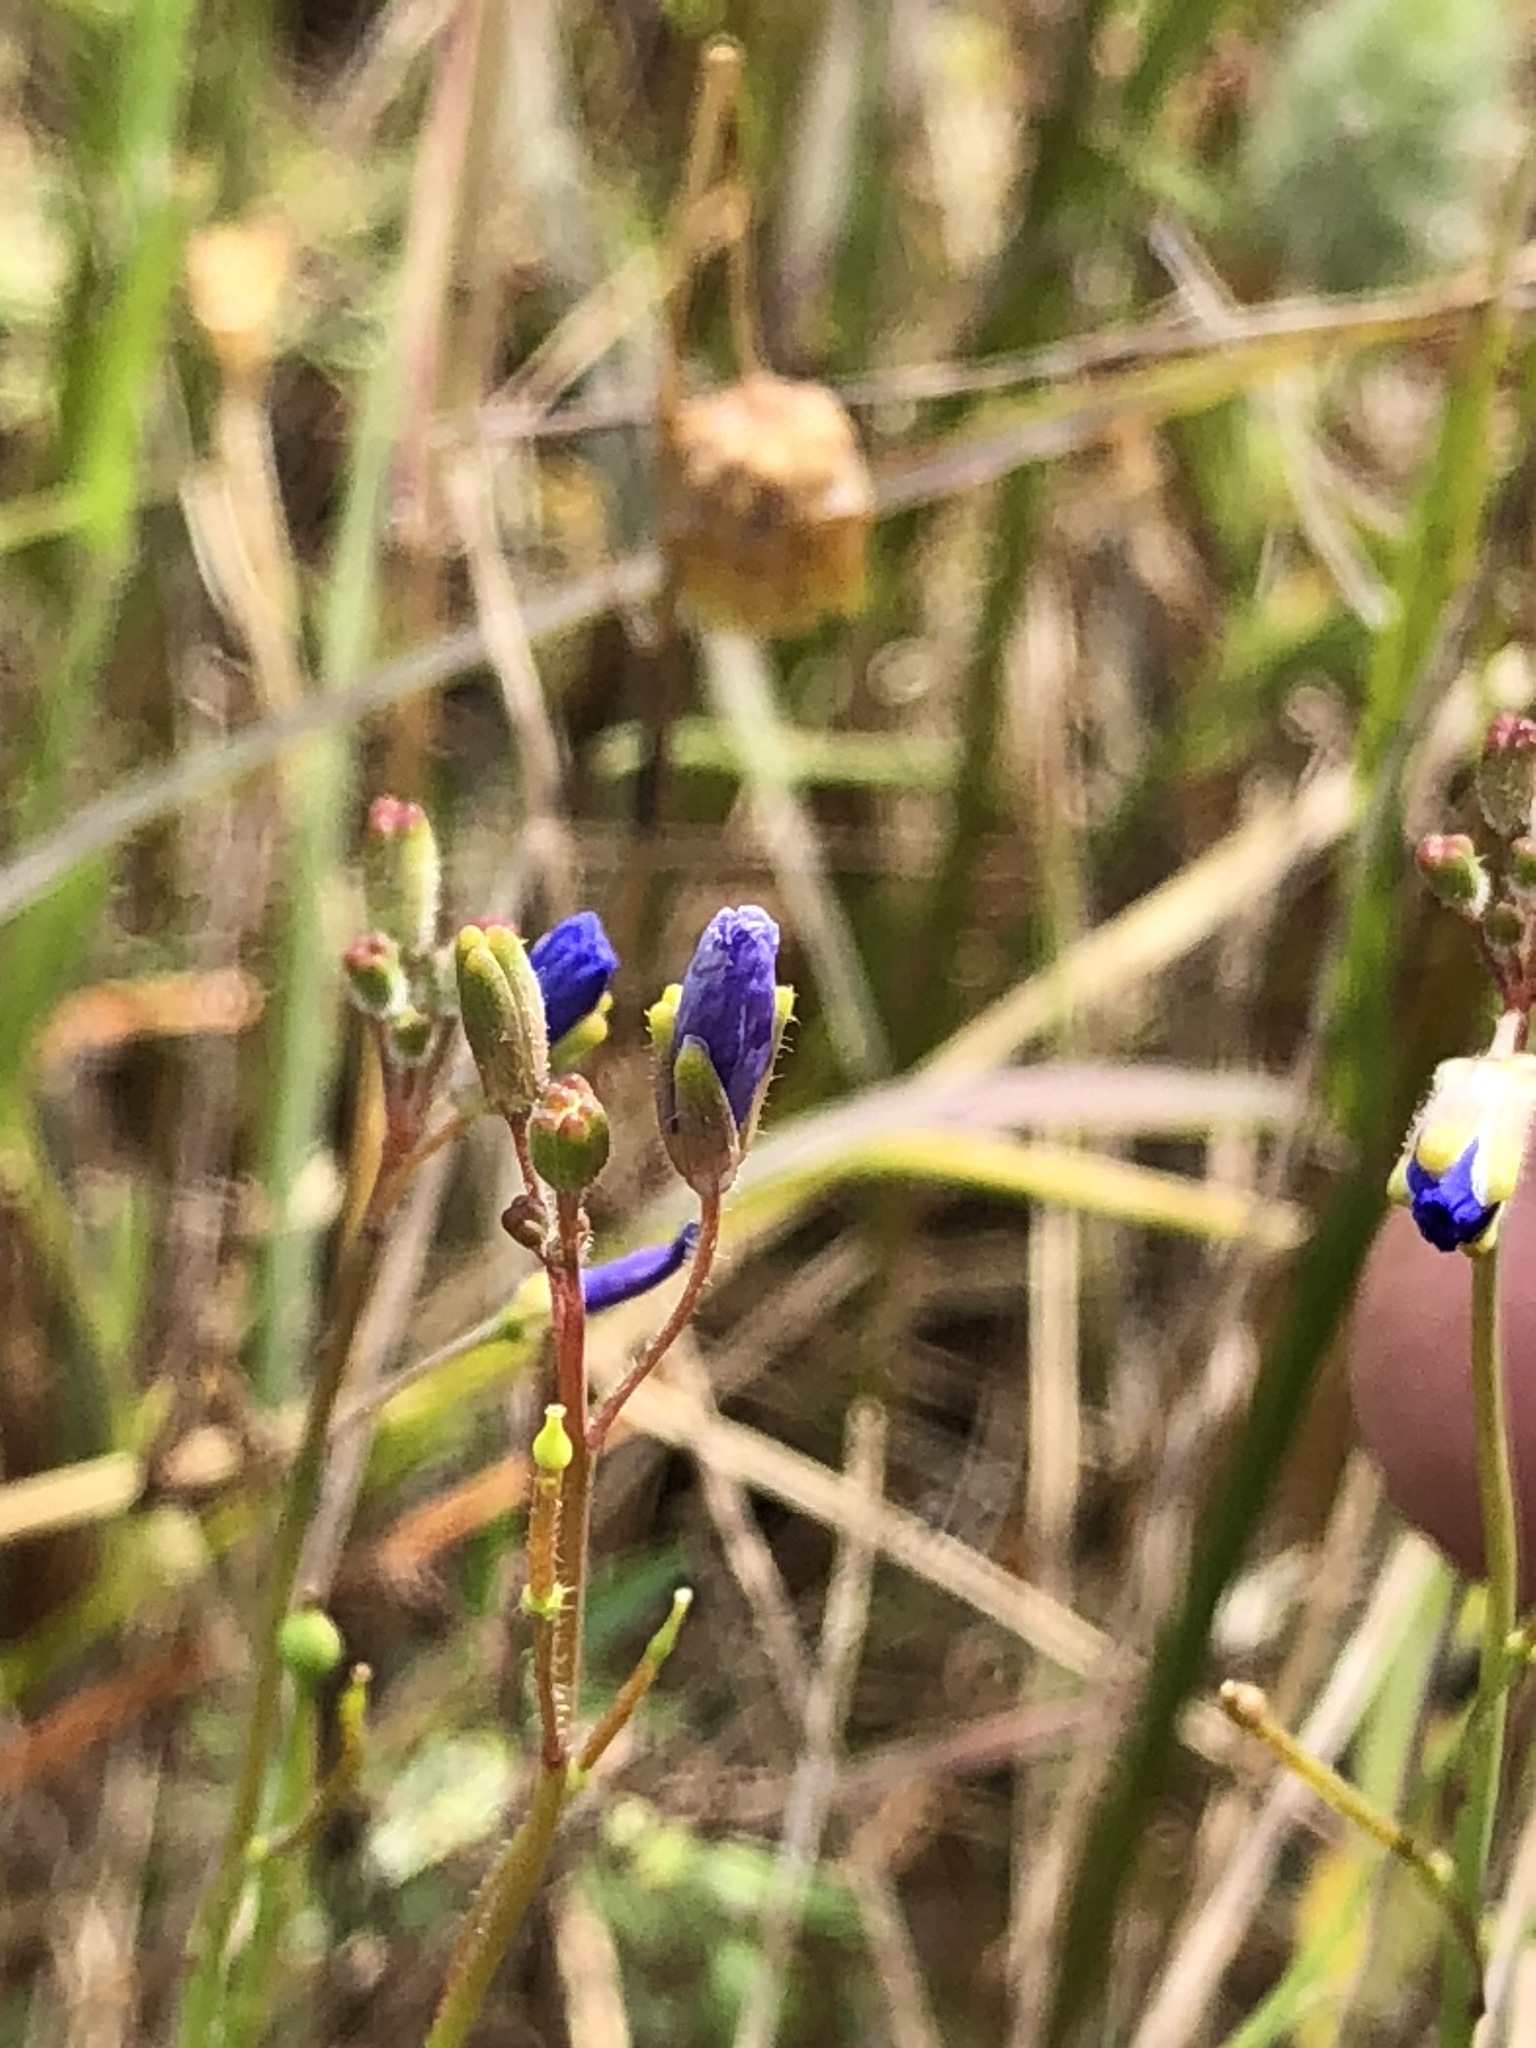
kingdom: Plantae
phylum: Tracheophyta
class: Magnoliopsida
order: Brassicales
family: Brassicaceae
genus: Heliophila
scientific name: Heliophila africana
